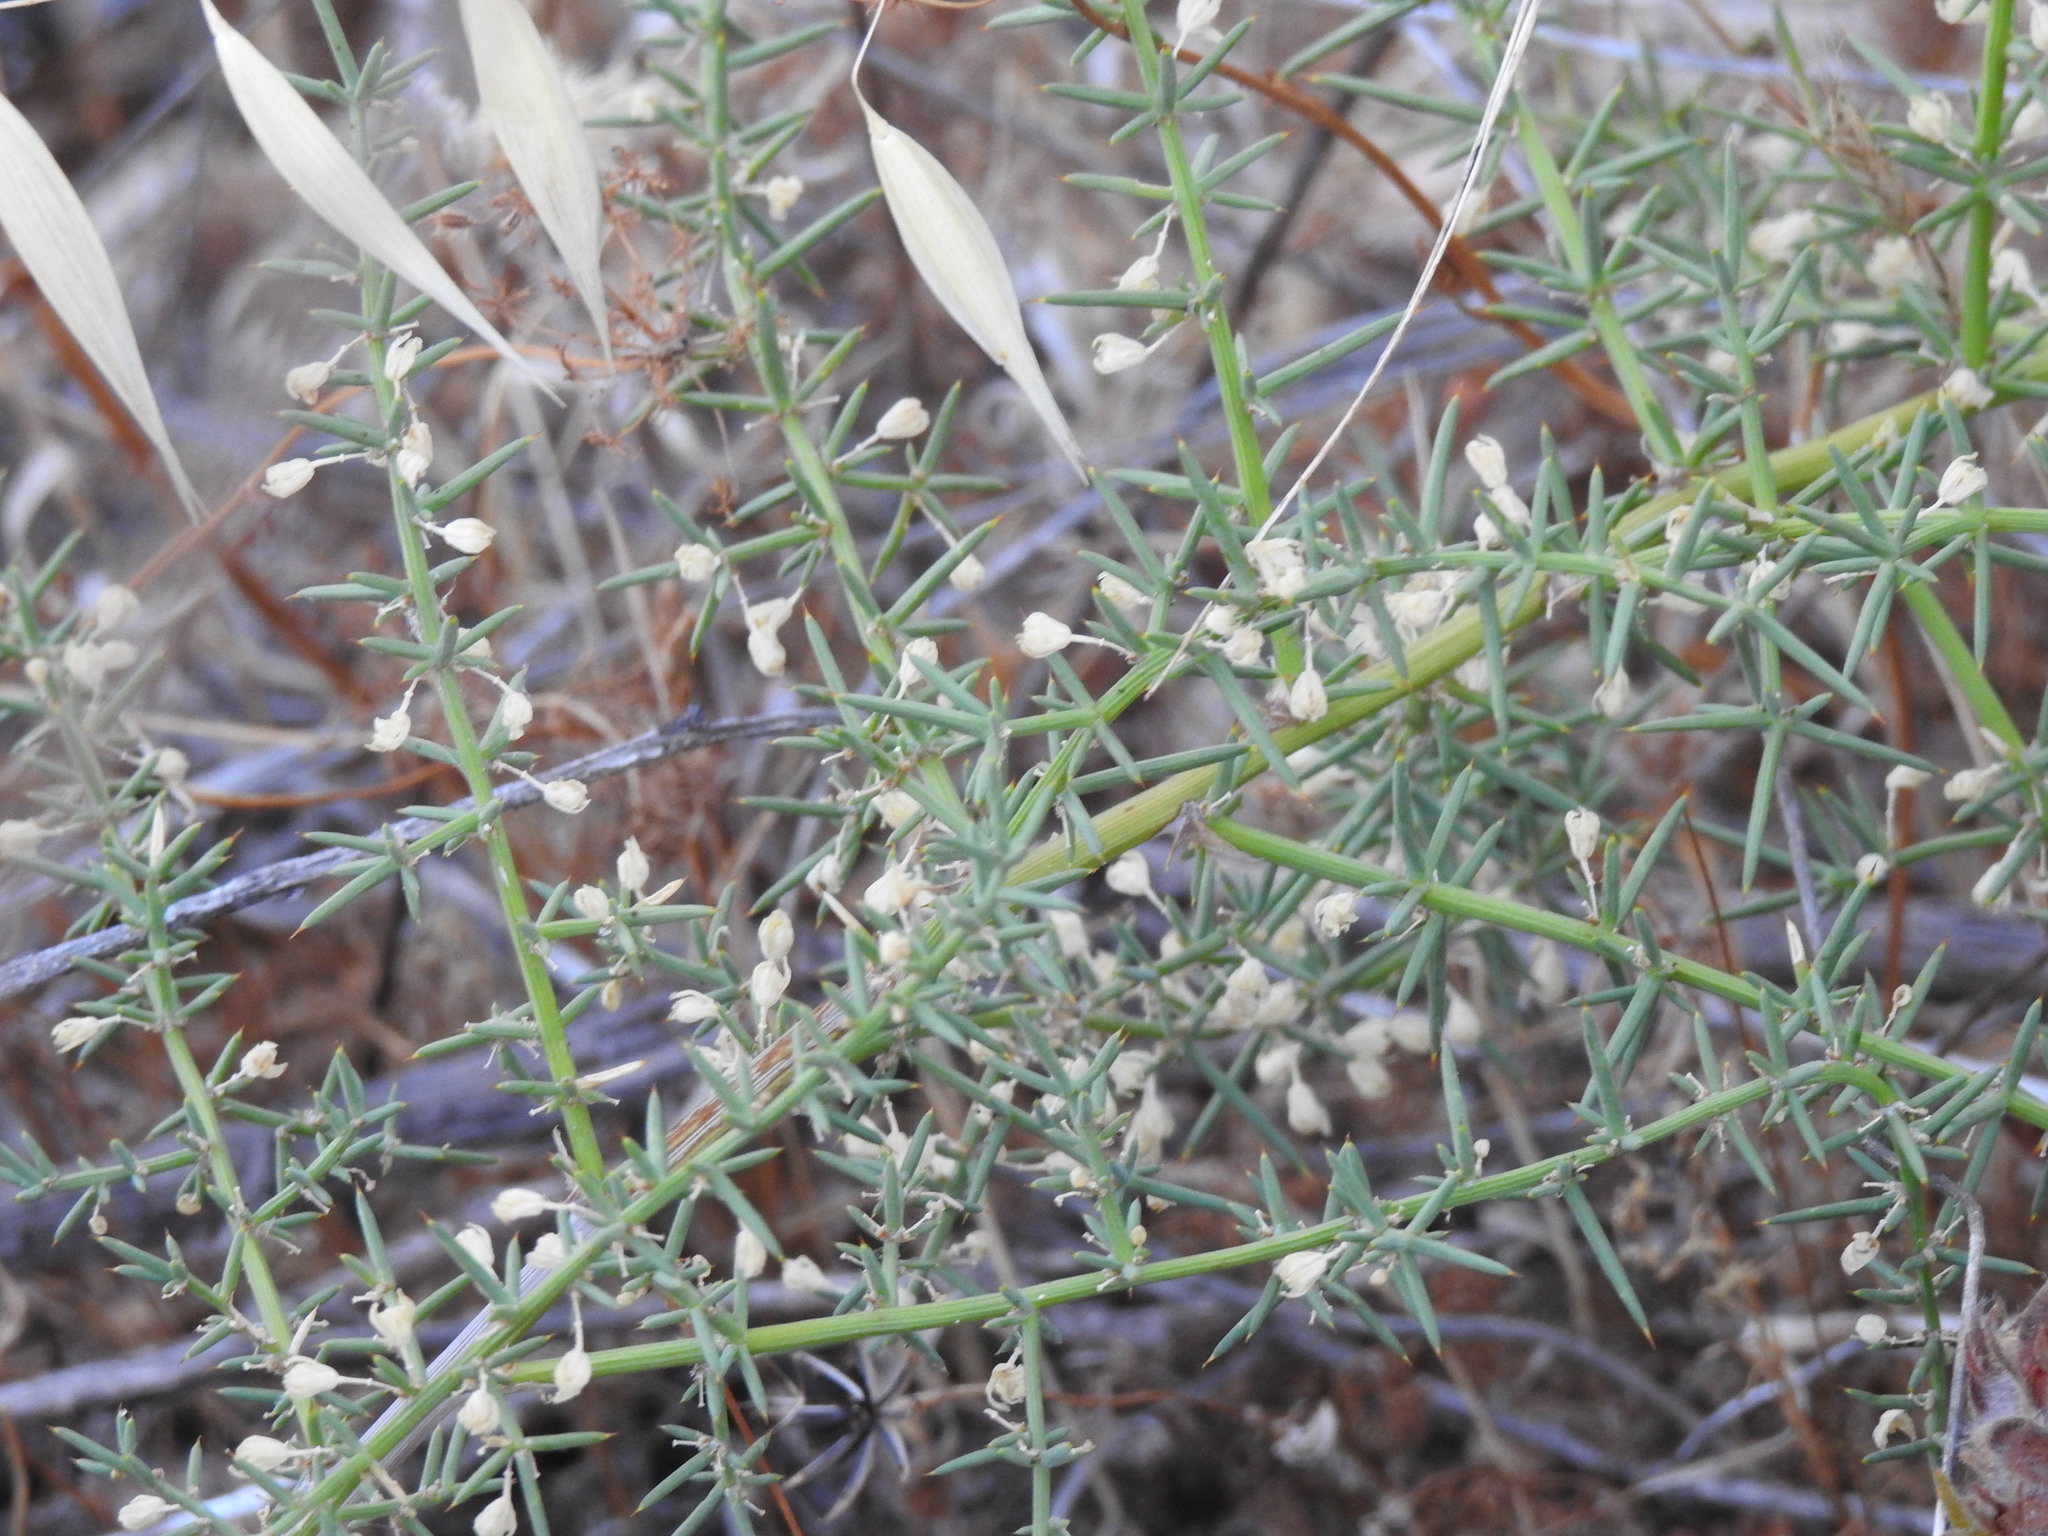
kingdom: Plantae
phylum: Tracheophyta
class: Liliopsida
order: Asparagales
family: Asparagaceae
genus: Asparagus
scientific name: Asparagus aphyllus
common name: Mediterranean asparagus
